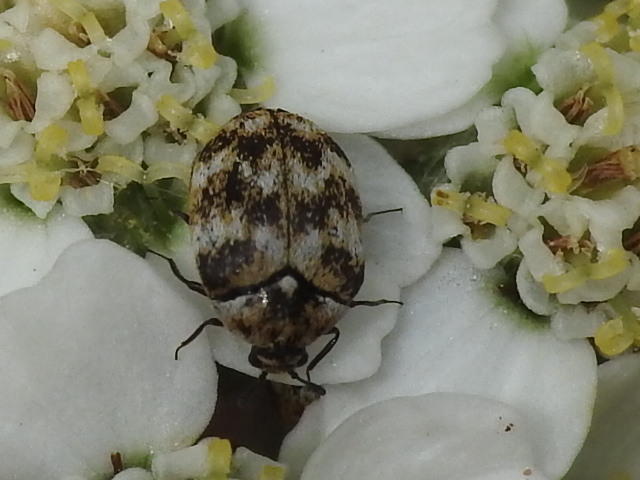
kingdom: Animalia
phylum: Arthropoda
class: Insecta
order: Coleoptera
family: Dermestidae
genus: Anthrenus
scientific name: Anthrenus verbasci
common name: Varied carpet beetle
